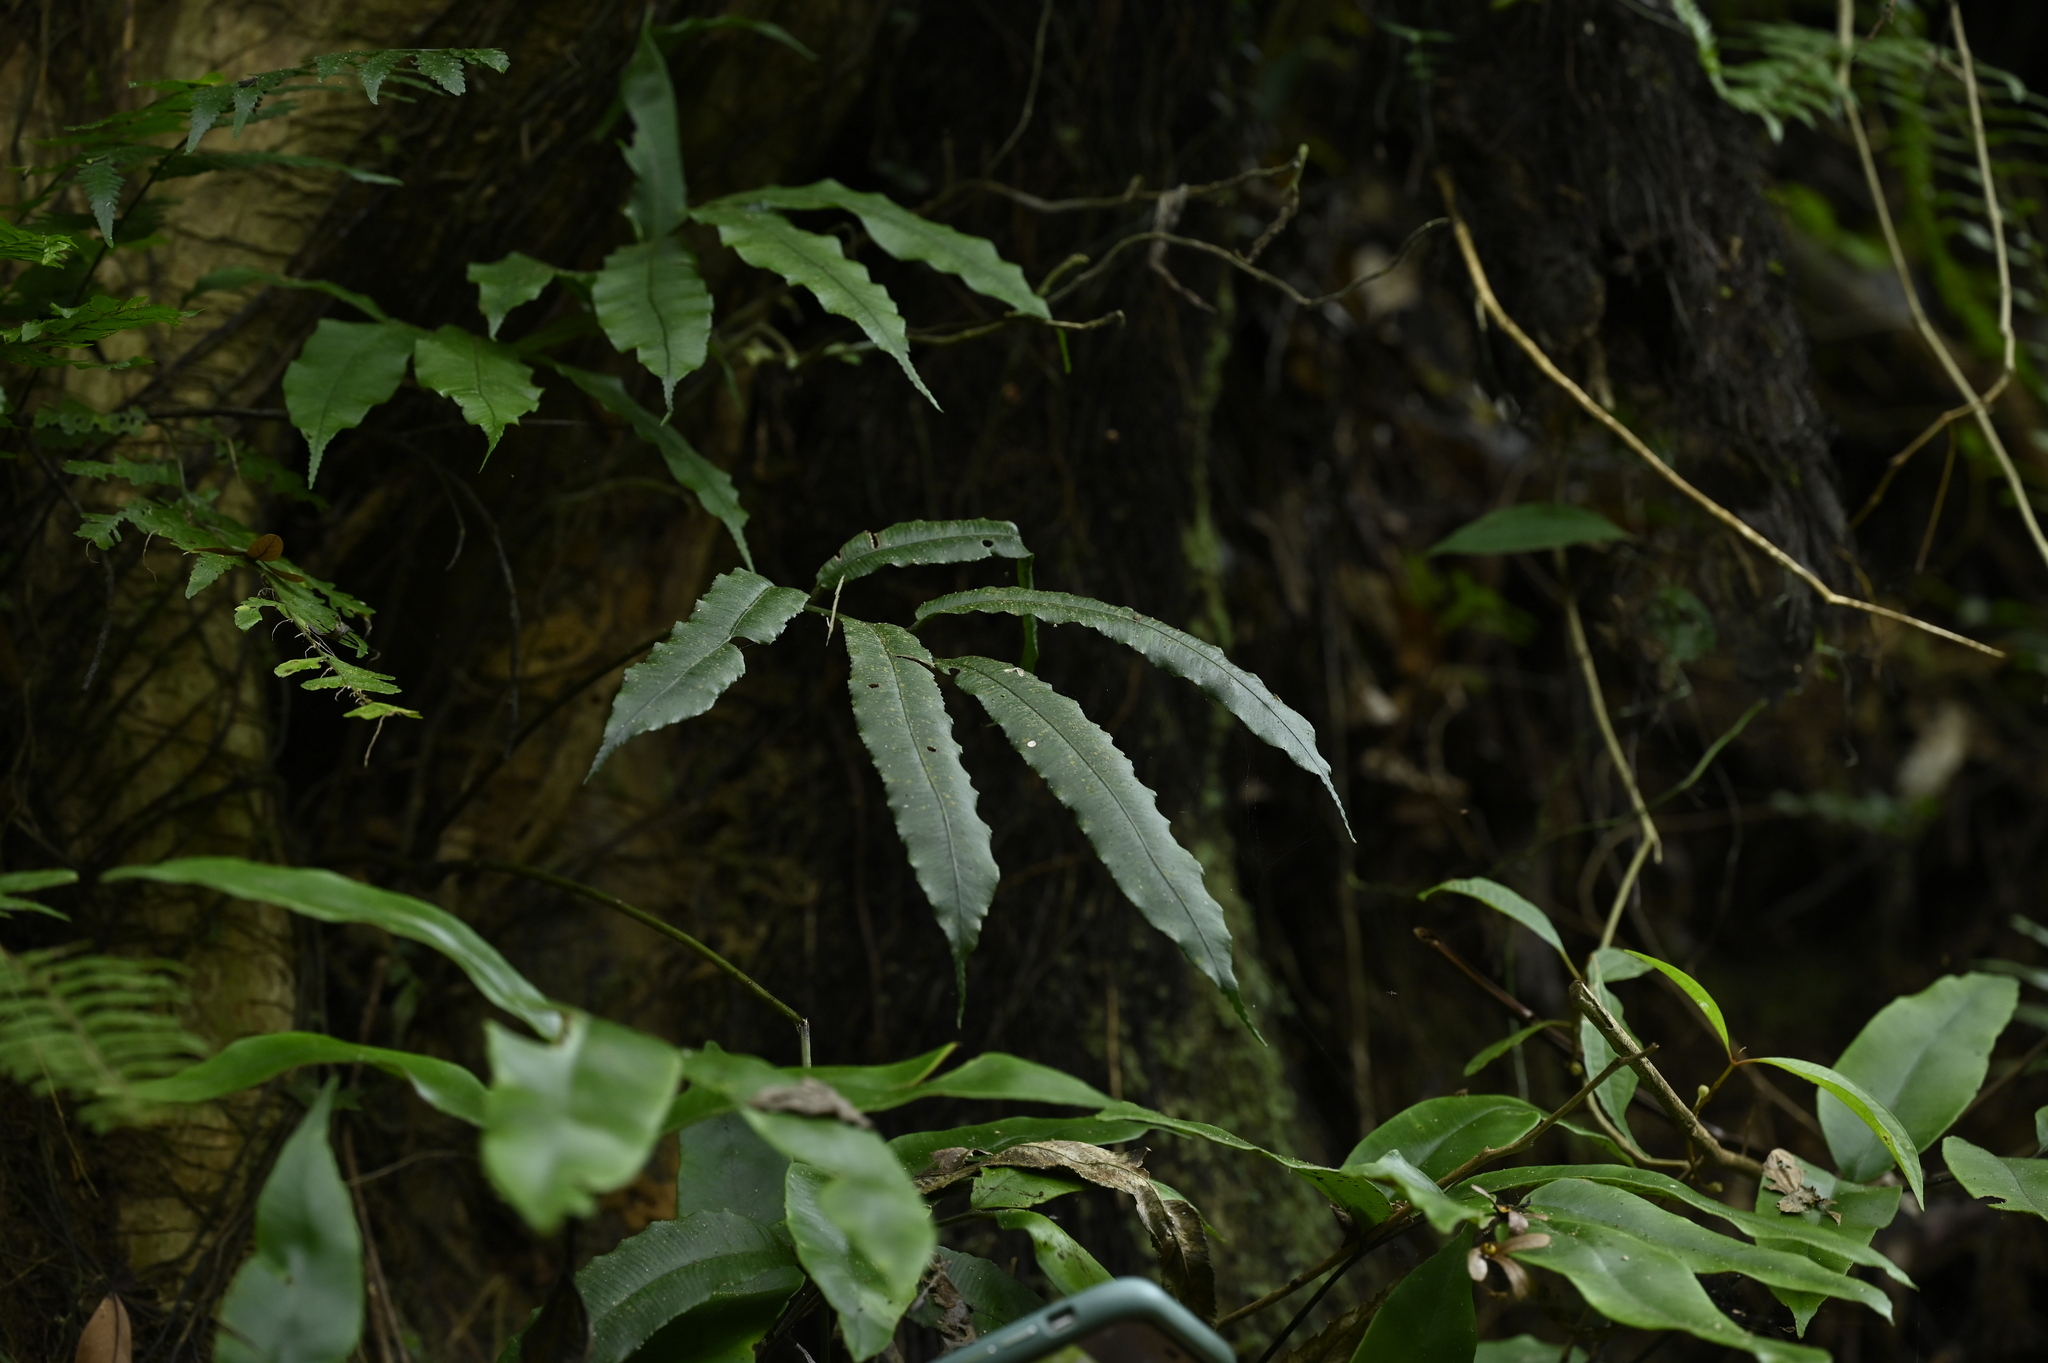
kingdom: Plantae
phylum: Tracheophyta
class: Polypodiopsida
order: Marattiales
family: Marattiaceae
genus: Angiopteris
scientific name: Angiopteris somae
